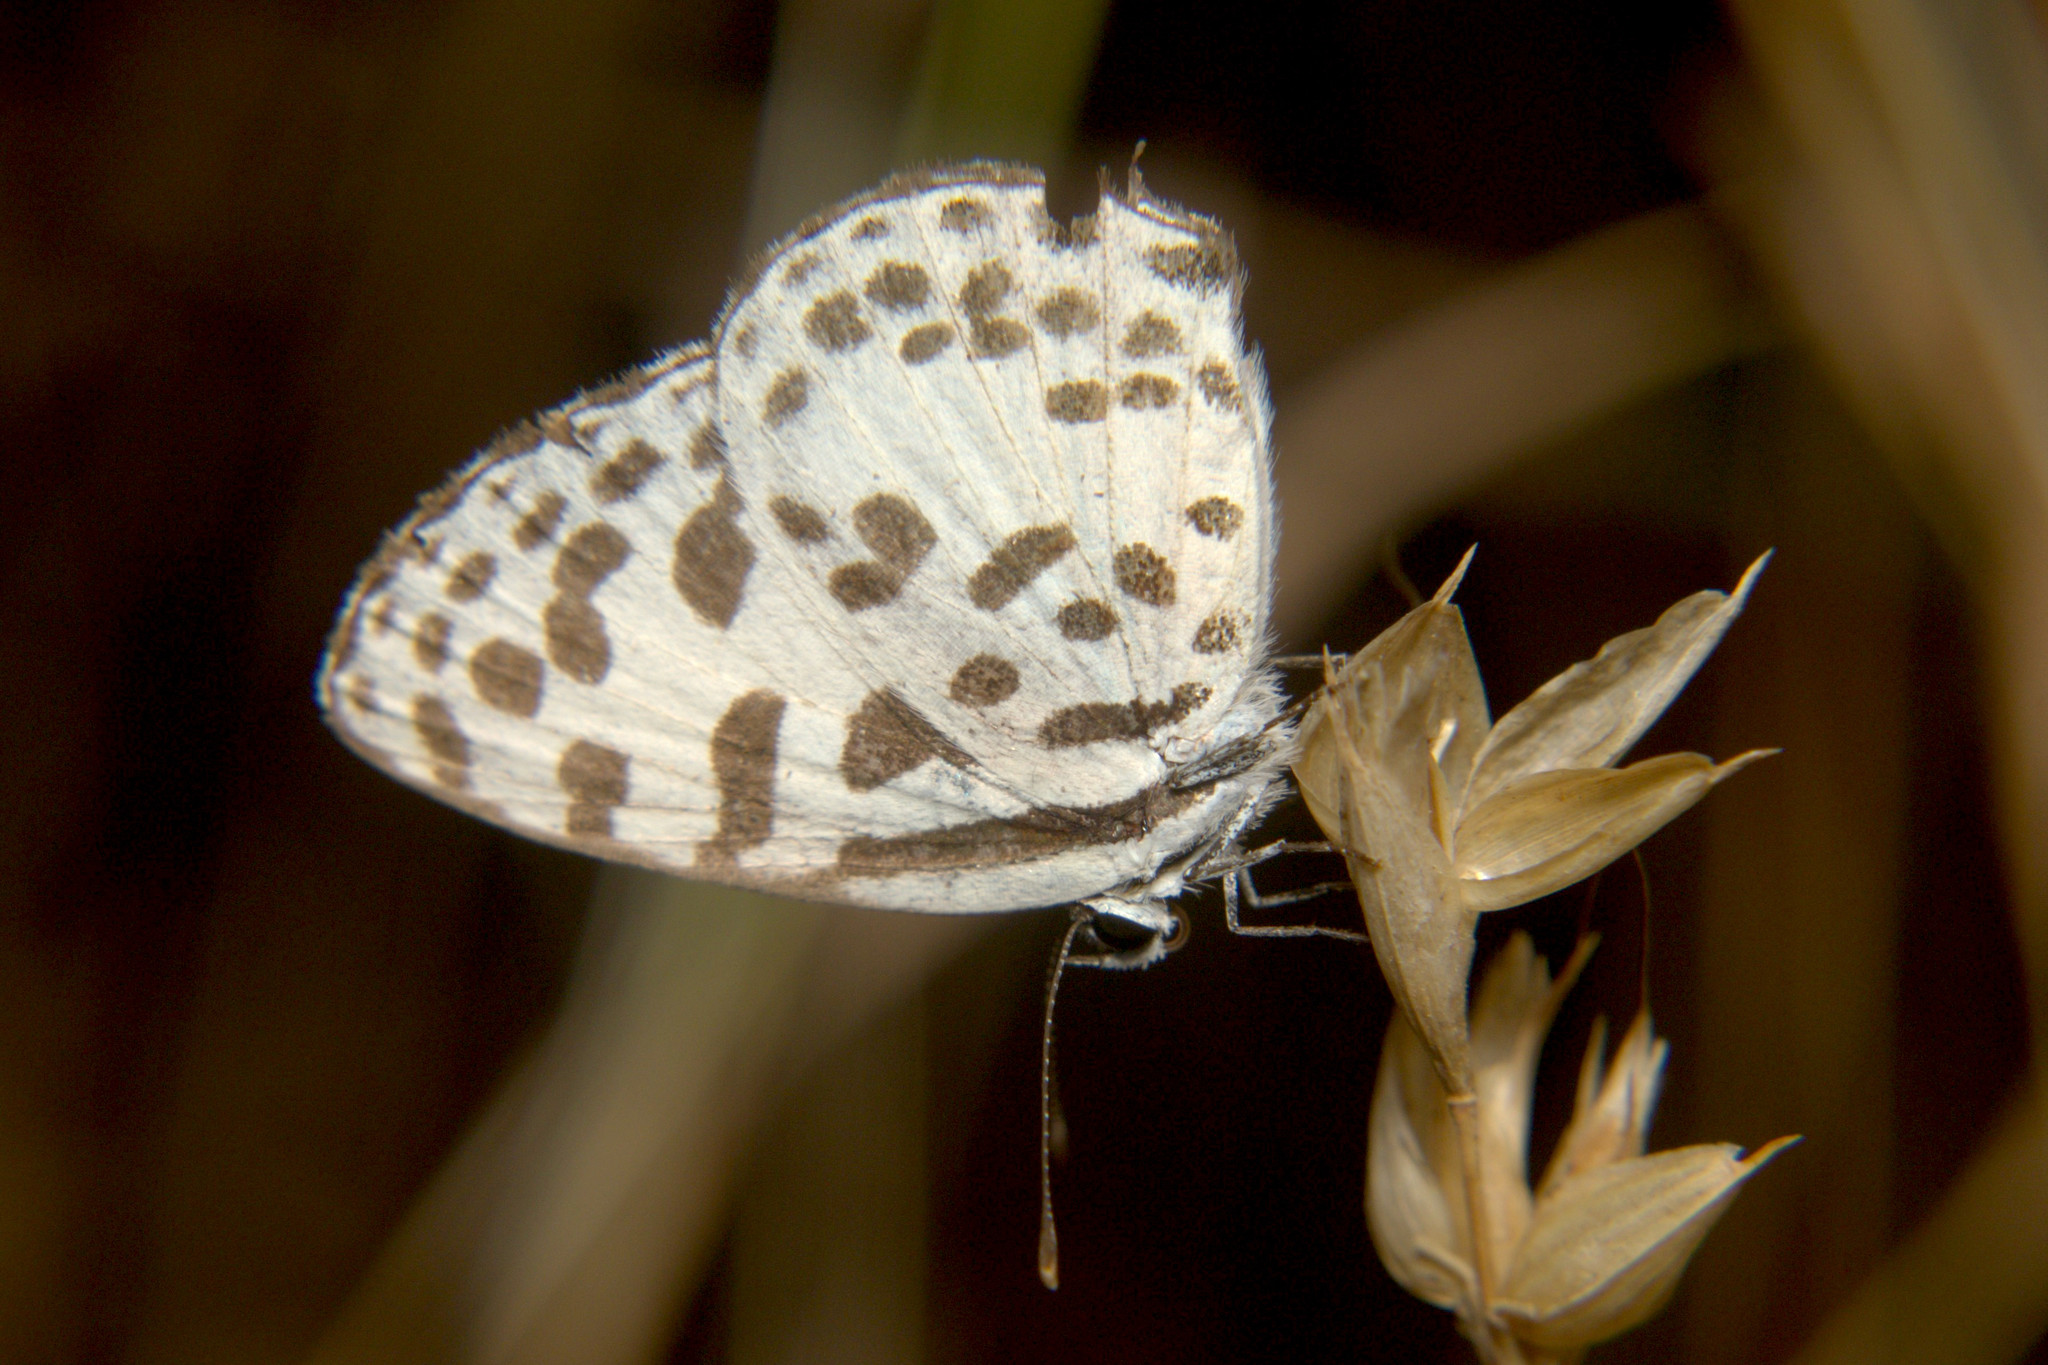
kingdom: Animalia
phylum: Arthropoda
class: Insecta
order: Lepidoptera
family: Lycaenidae
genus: Castalius
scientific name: Castalius rosimon
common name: Common pierrot
